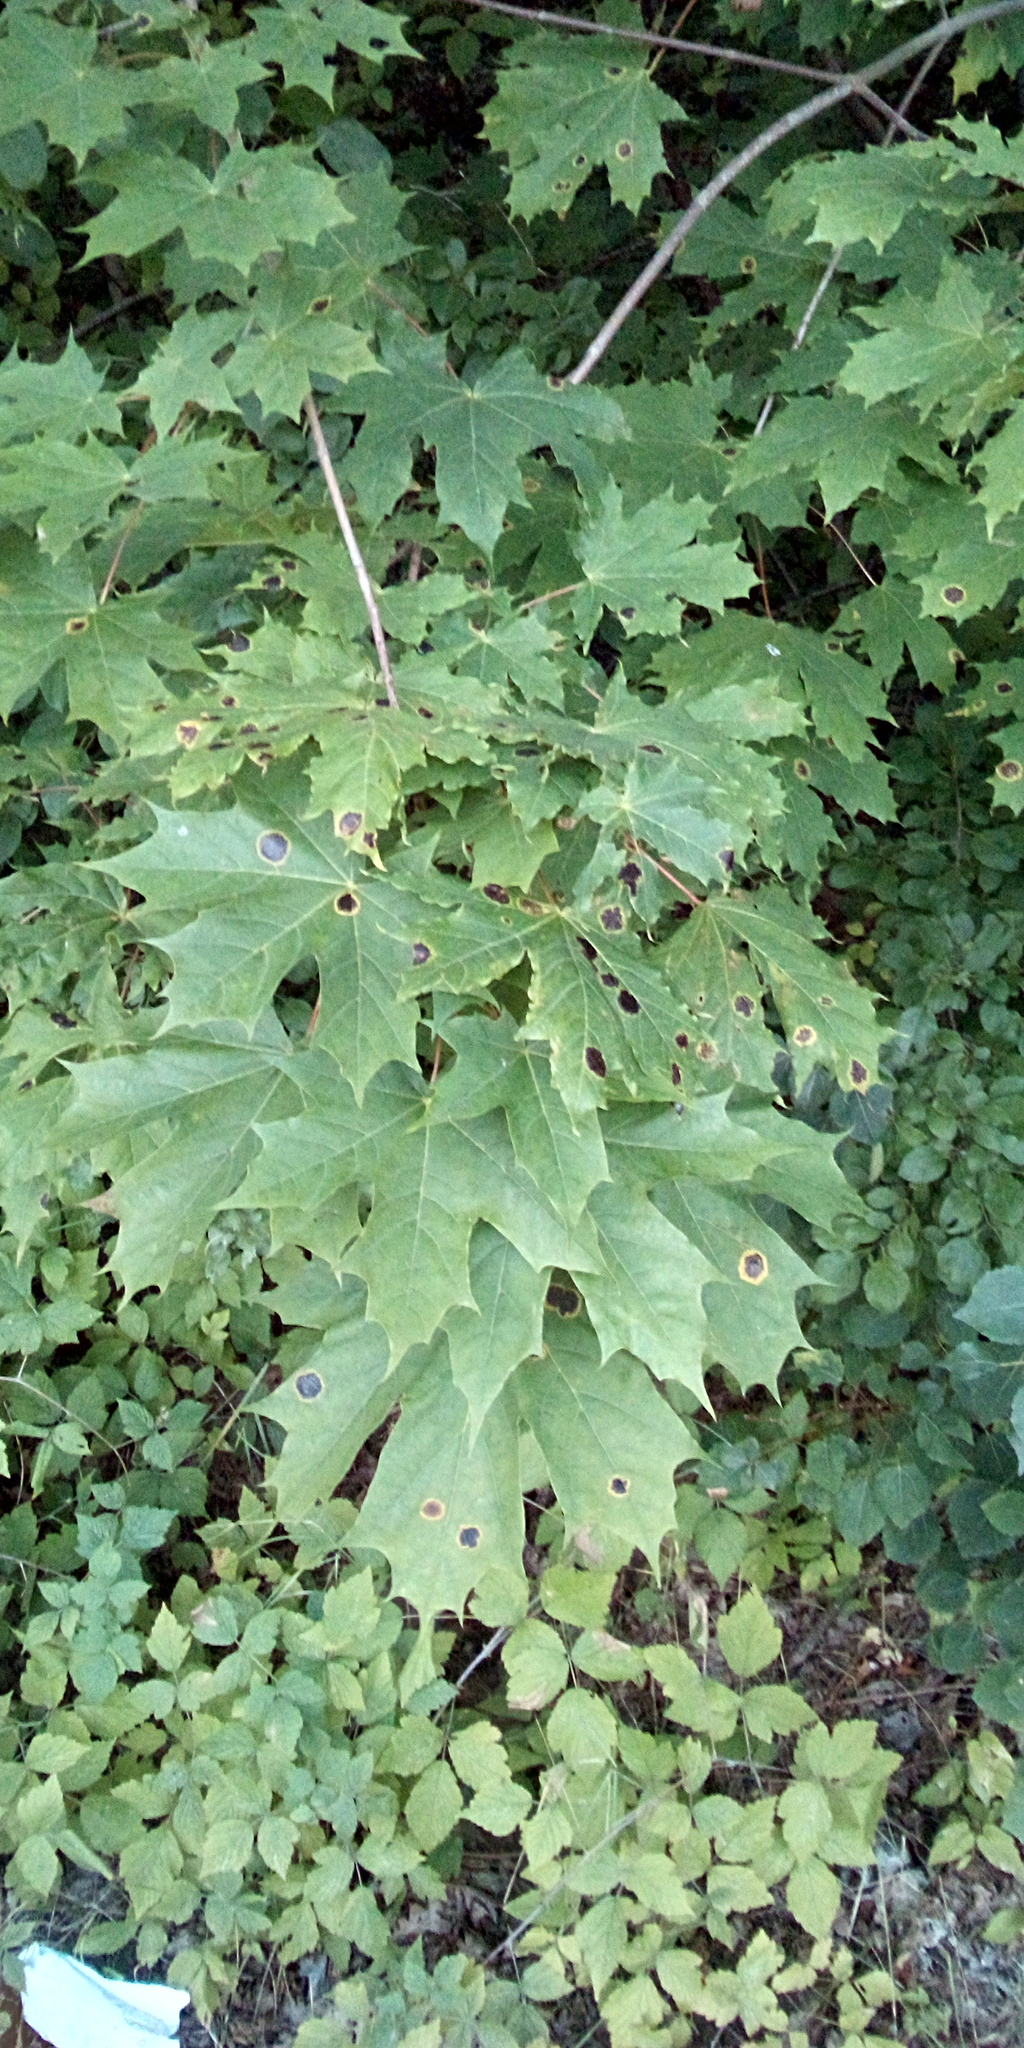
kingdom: Plantae
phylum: Tracheophyta
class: Magnoliopsida
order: Sapindales
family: Sapindaceae
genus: Acer
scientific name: Acer platanoides
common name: Norway maple
